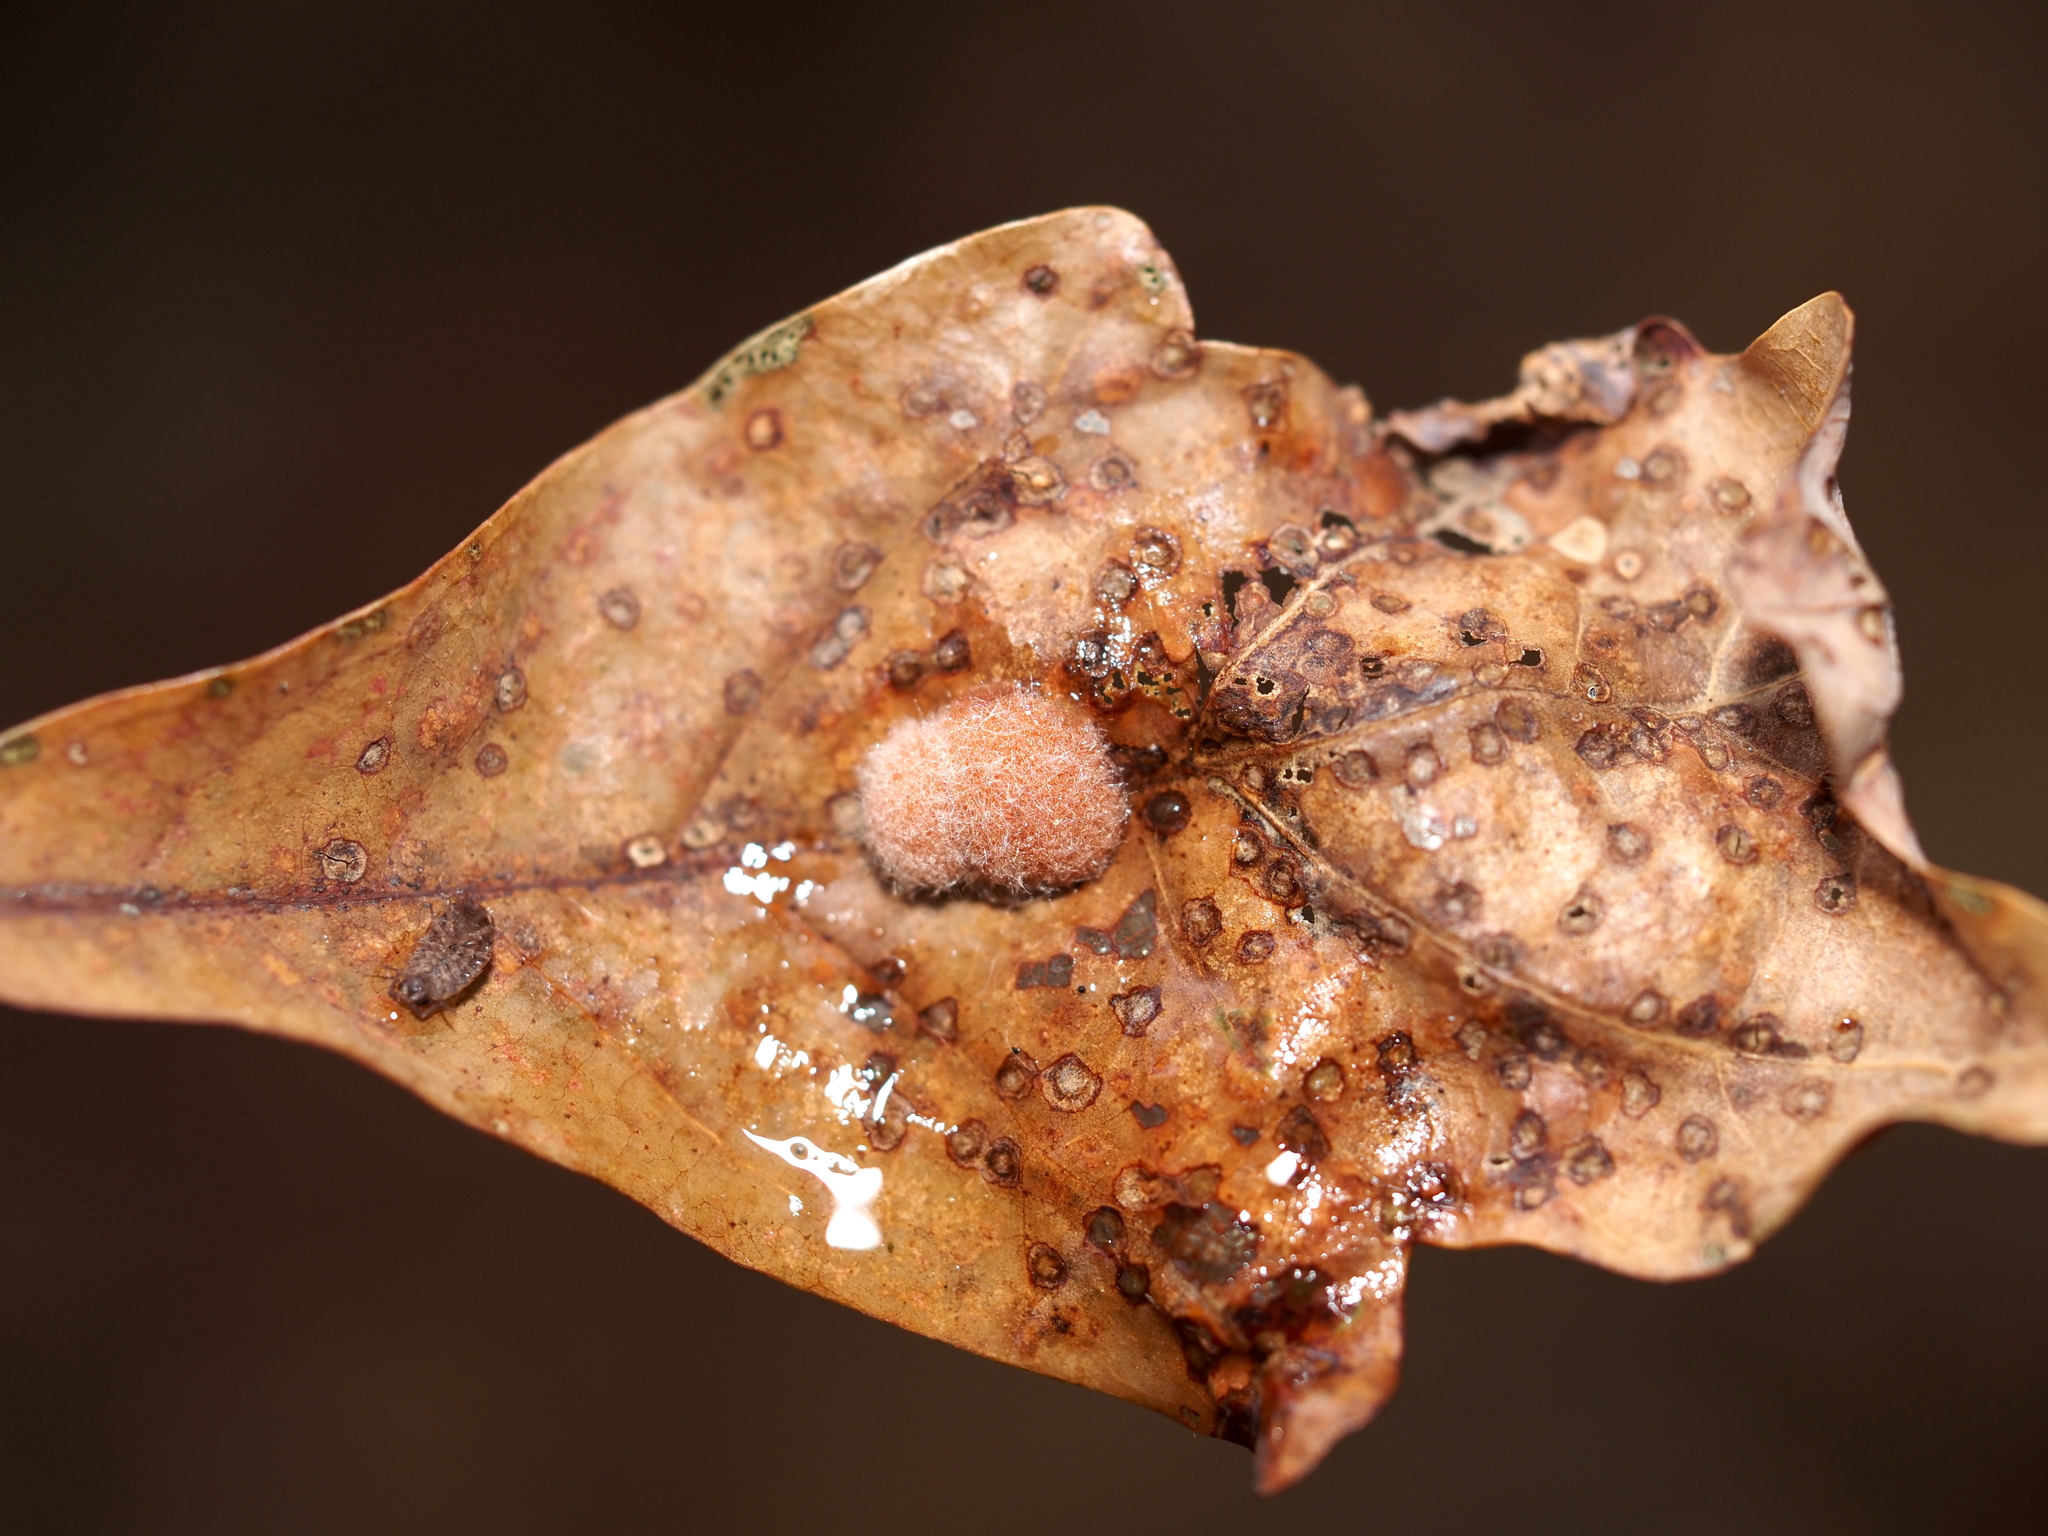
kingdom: Animalia
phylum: Arthropoda
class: Insecta
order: Hymenoptera
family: Cynipidae
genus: Andricus
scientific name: Andricus quercusflocci
